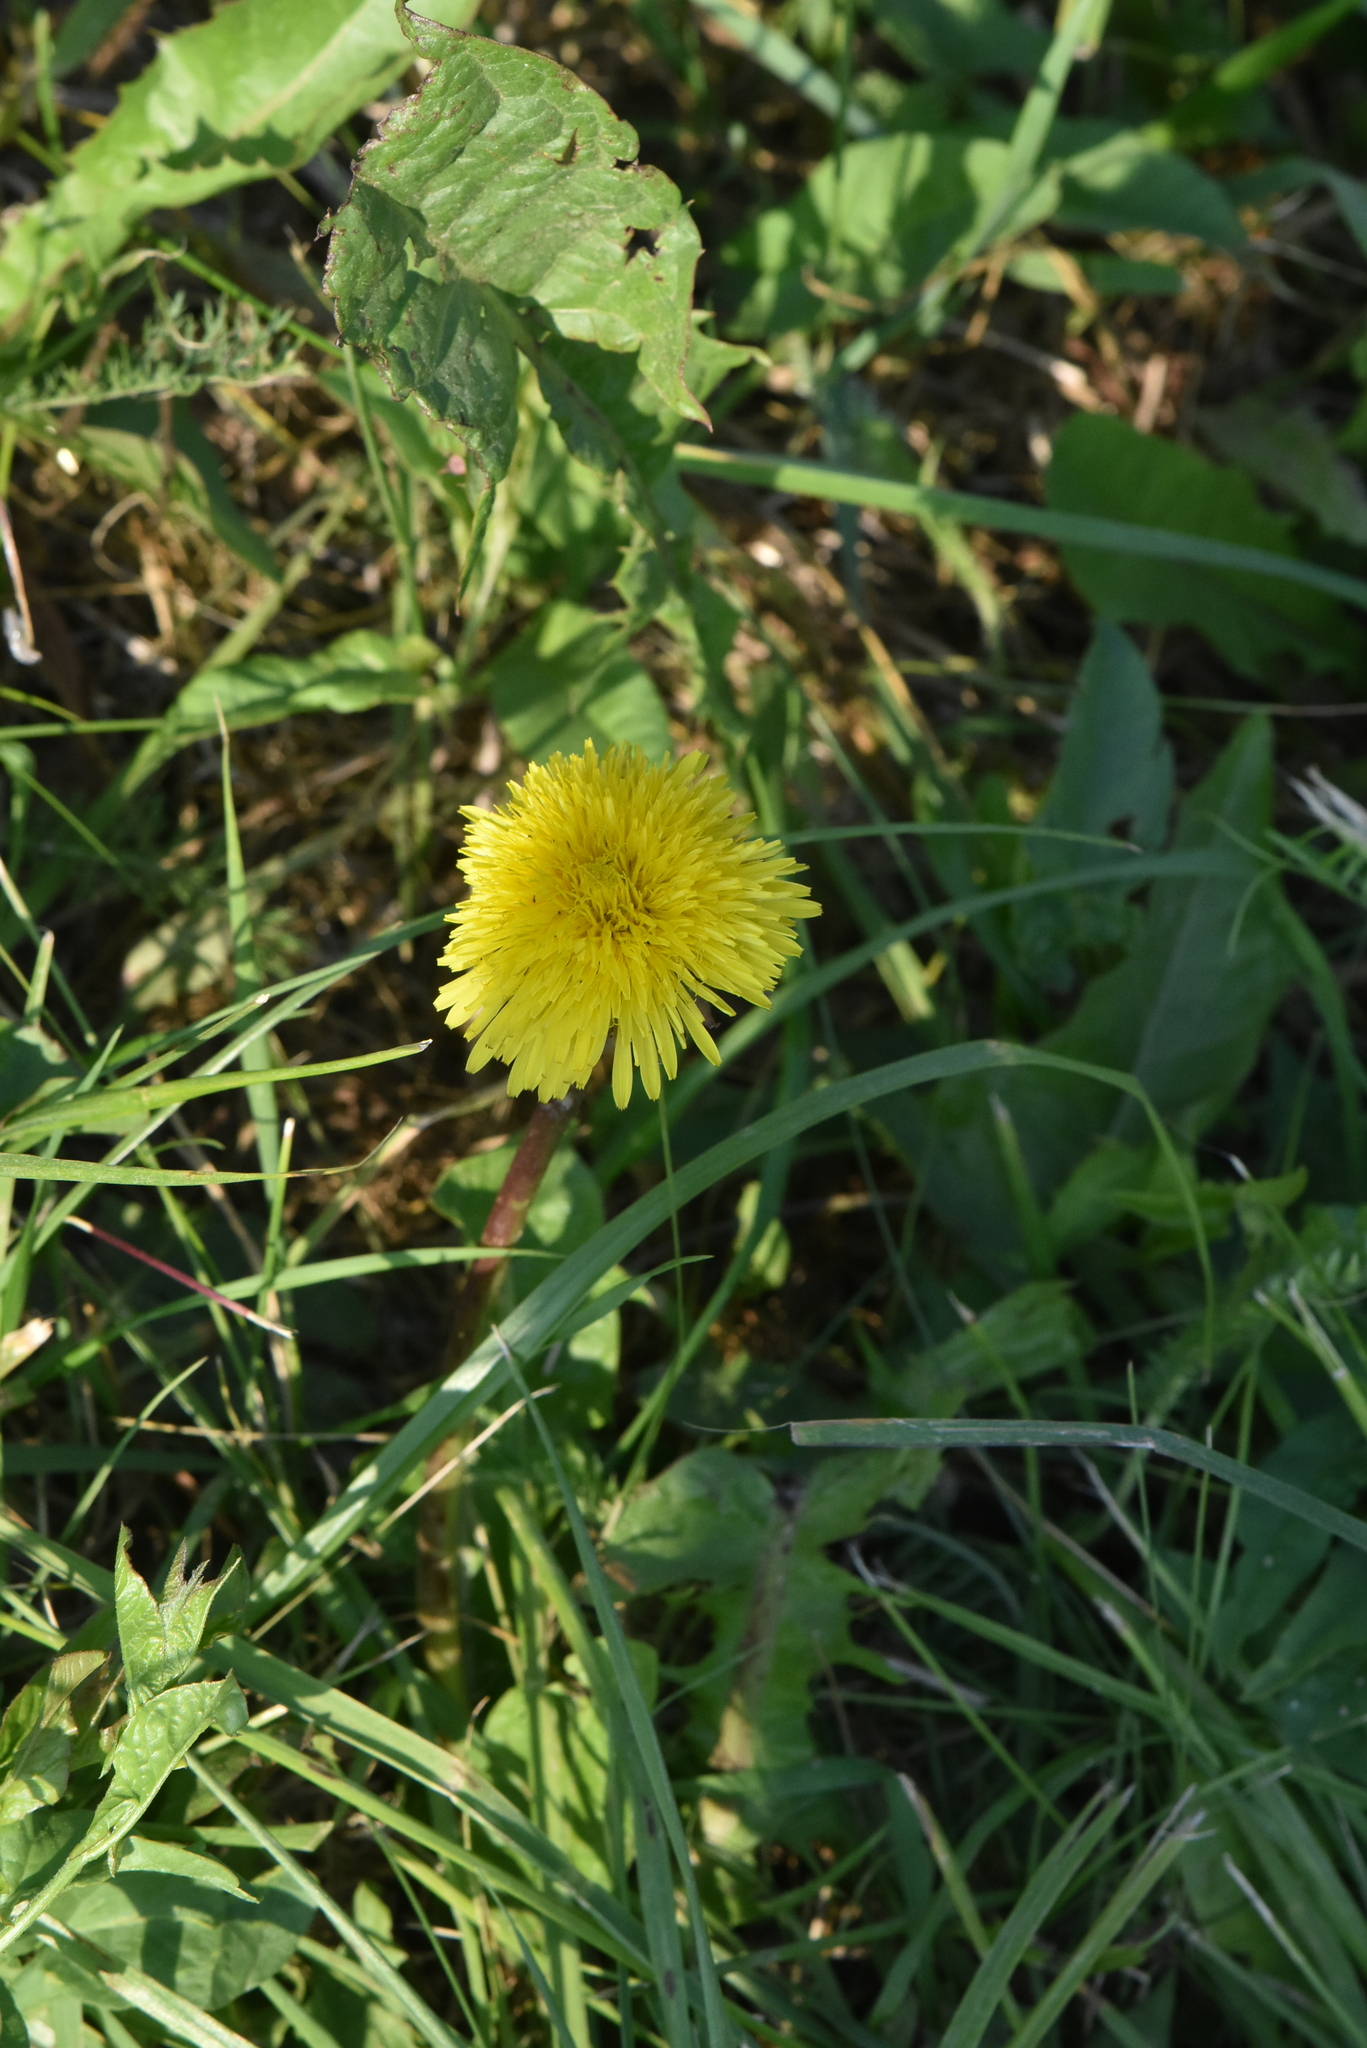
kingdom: Plantae
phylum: Tracheophyta
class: Magnoliopsida
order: Asterales
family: Asteraceae
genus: Taraxacum
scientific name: Taraxacum officinale
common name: Common dandelion
